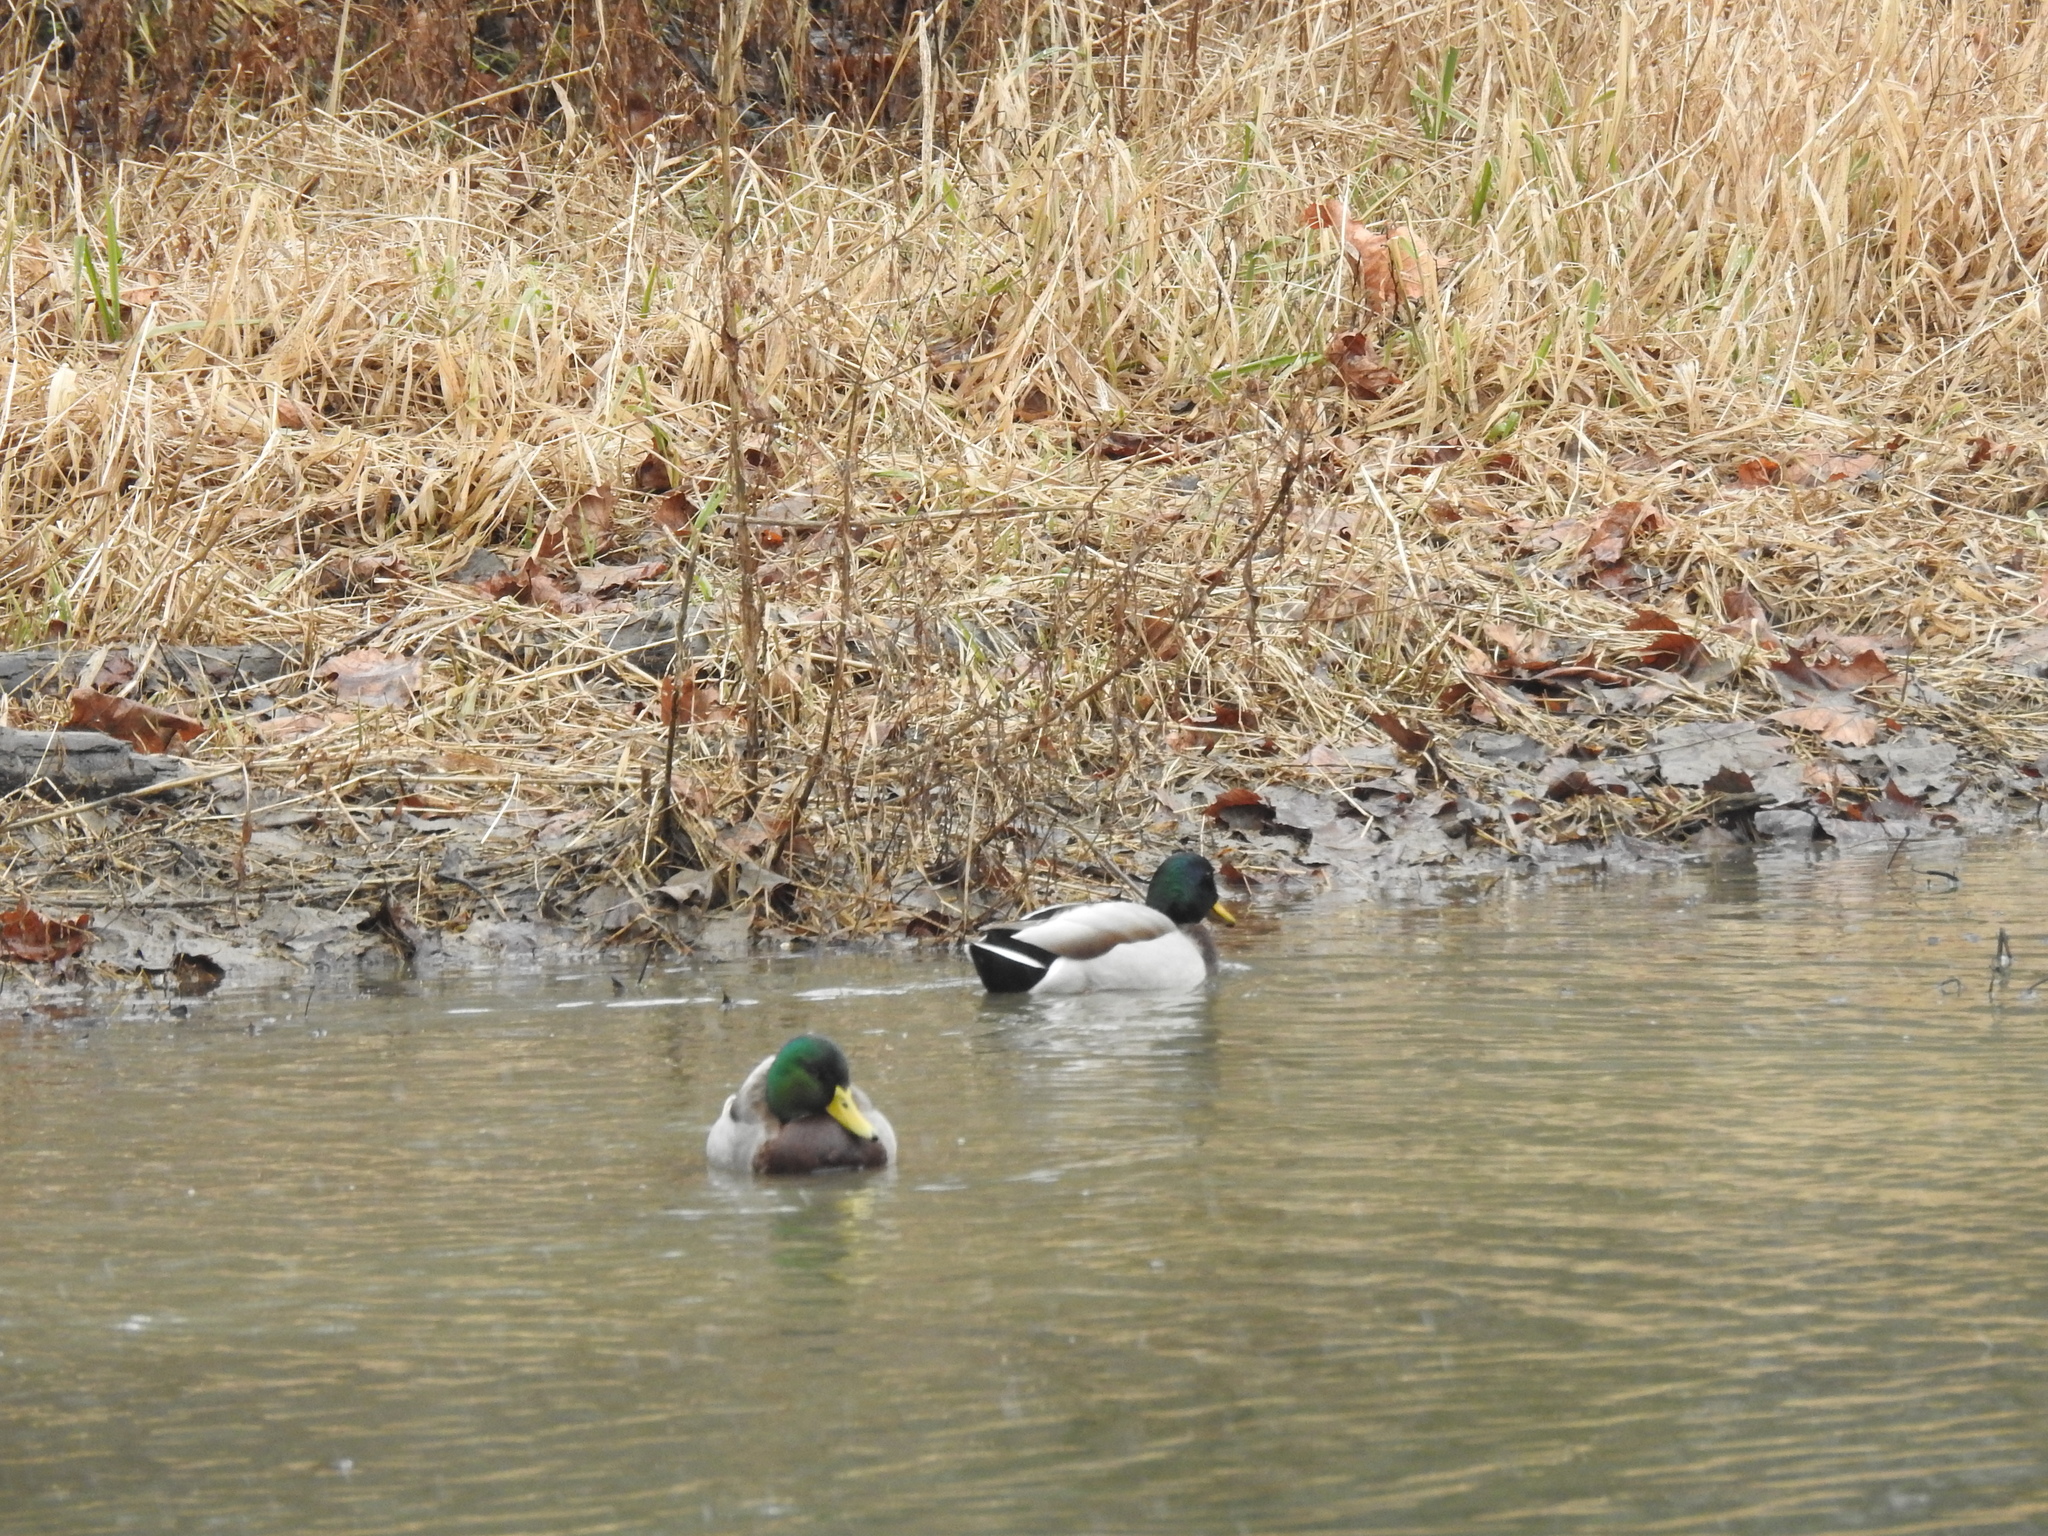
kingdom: Animalia
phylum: Chordata
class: Aves
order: Anseriformes
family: Anatidae
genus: Anas
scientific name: Anas platyrhynchos
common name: Mallard
